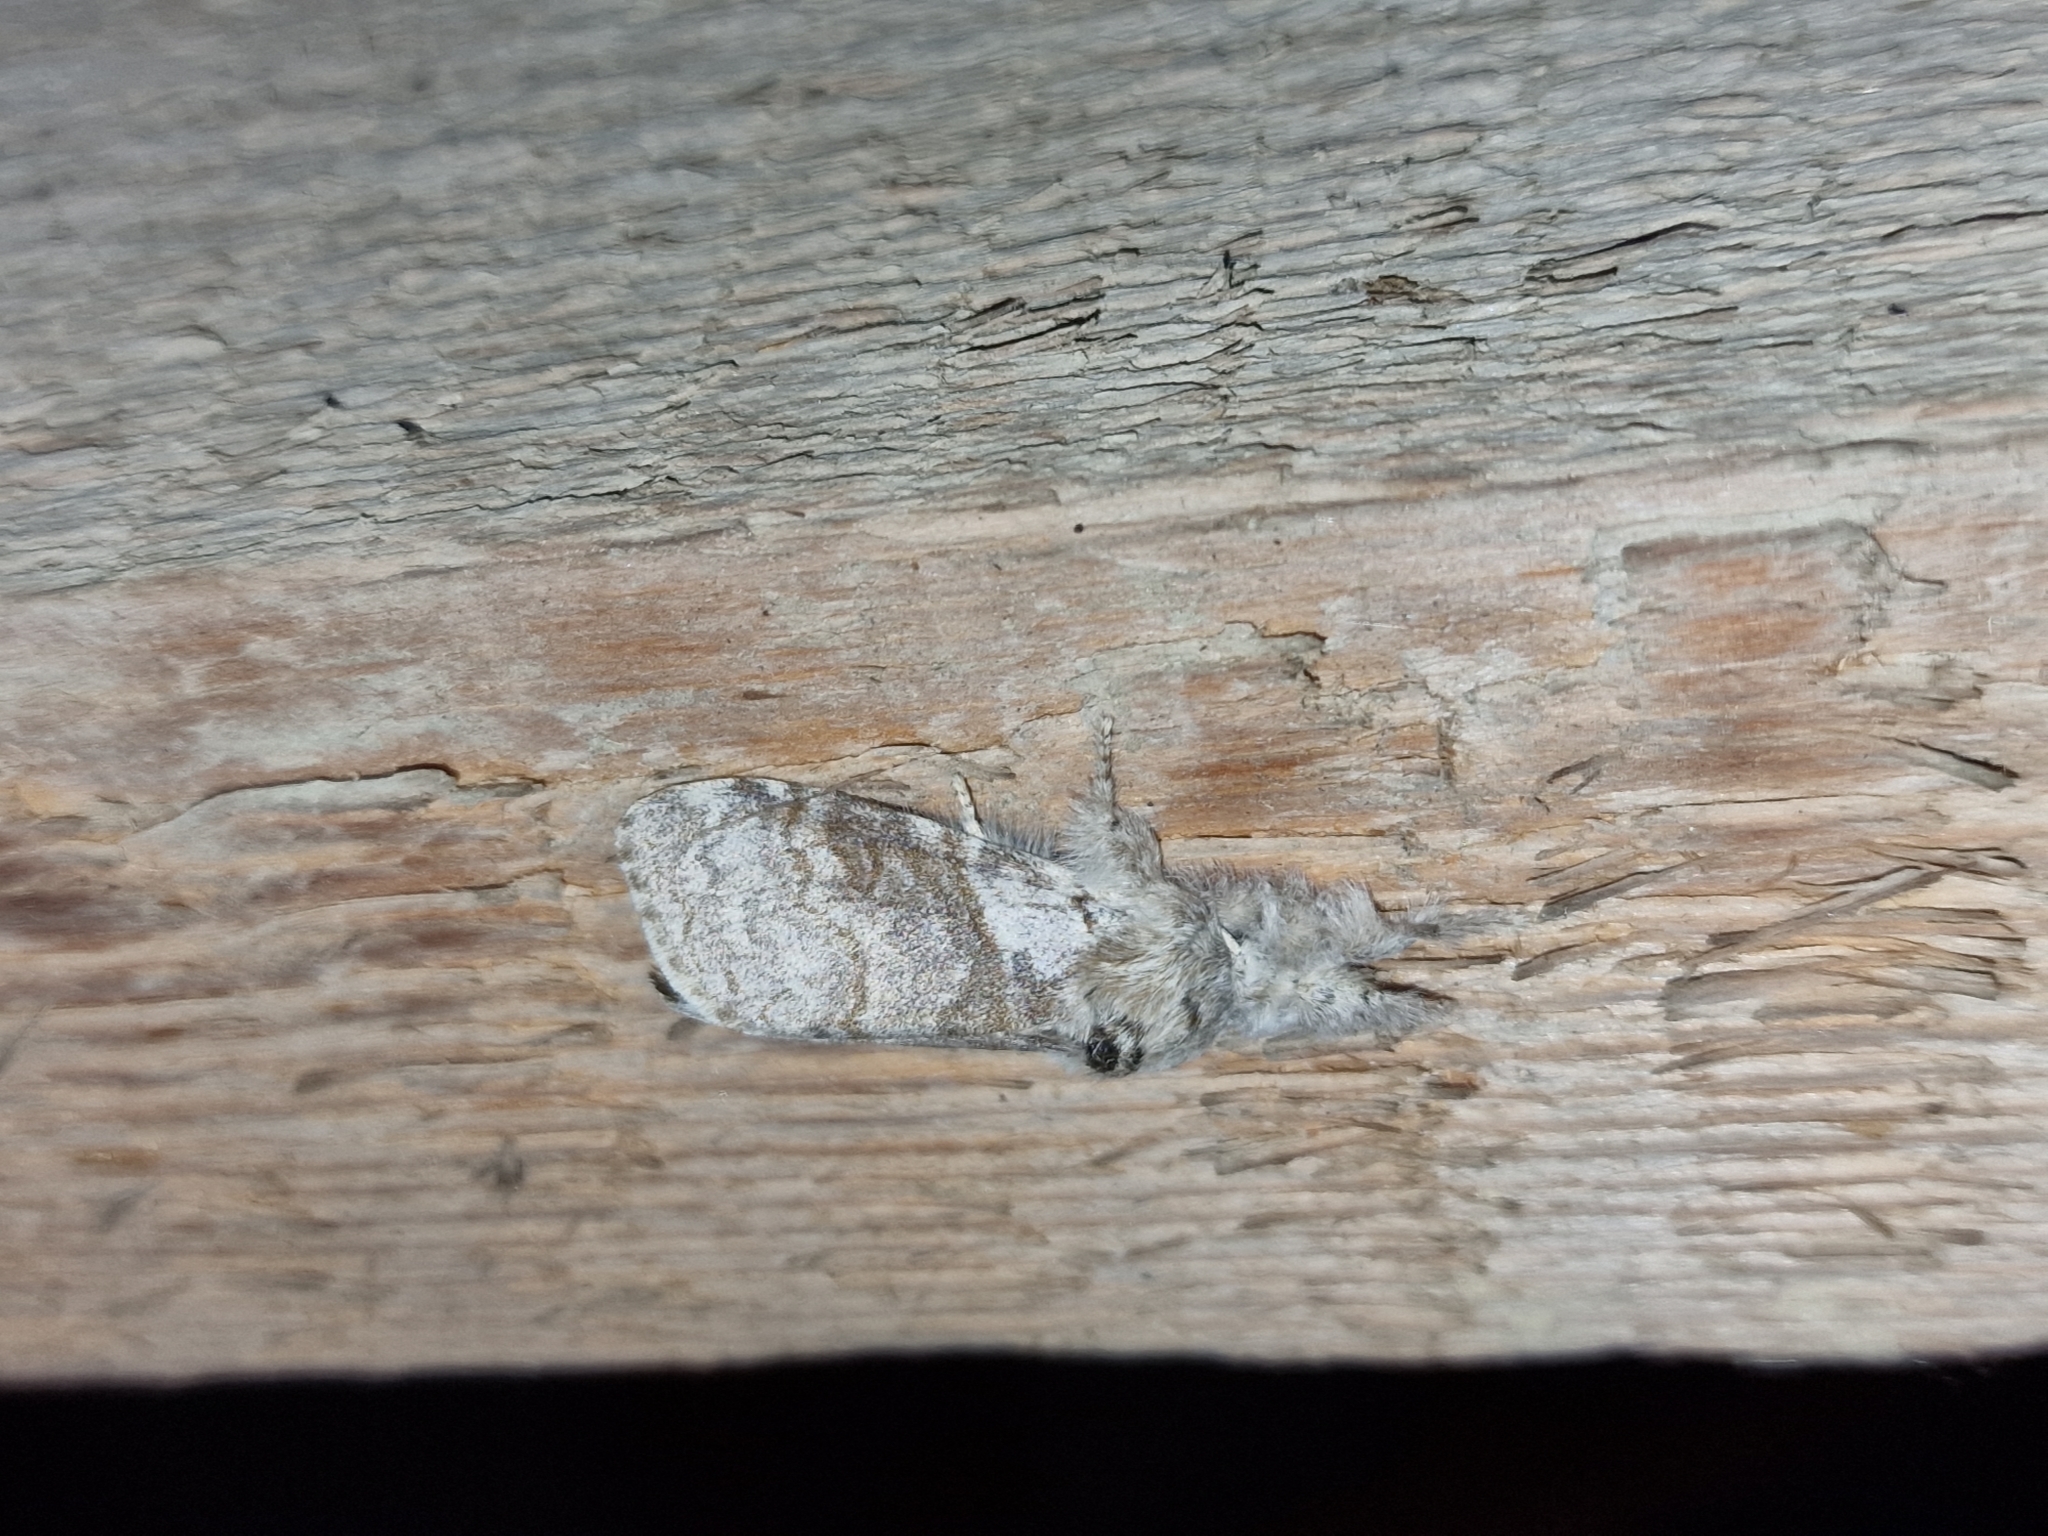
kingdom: Animalia
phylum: Arthropoda
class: Insecta
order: Lepidoptera
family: Erebidae
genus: Calliteara
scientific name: Calliteara pudibunda
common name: Pale tussock
